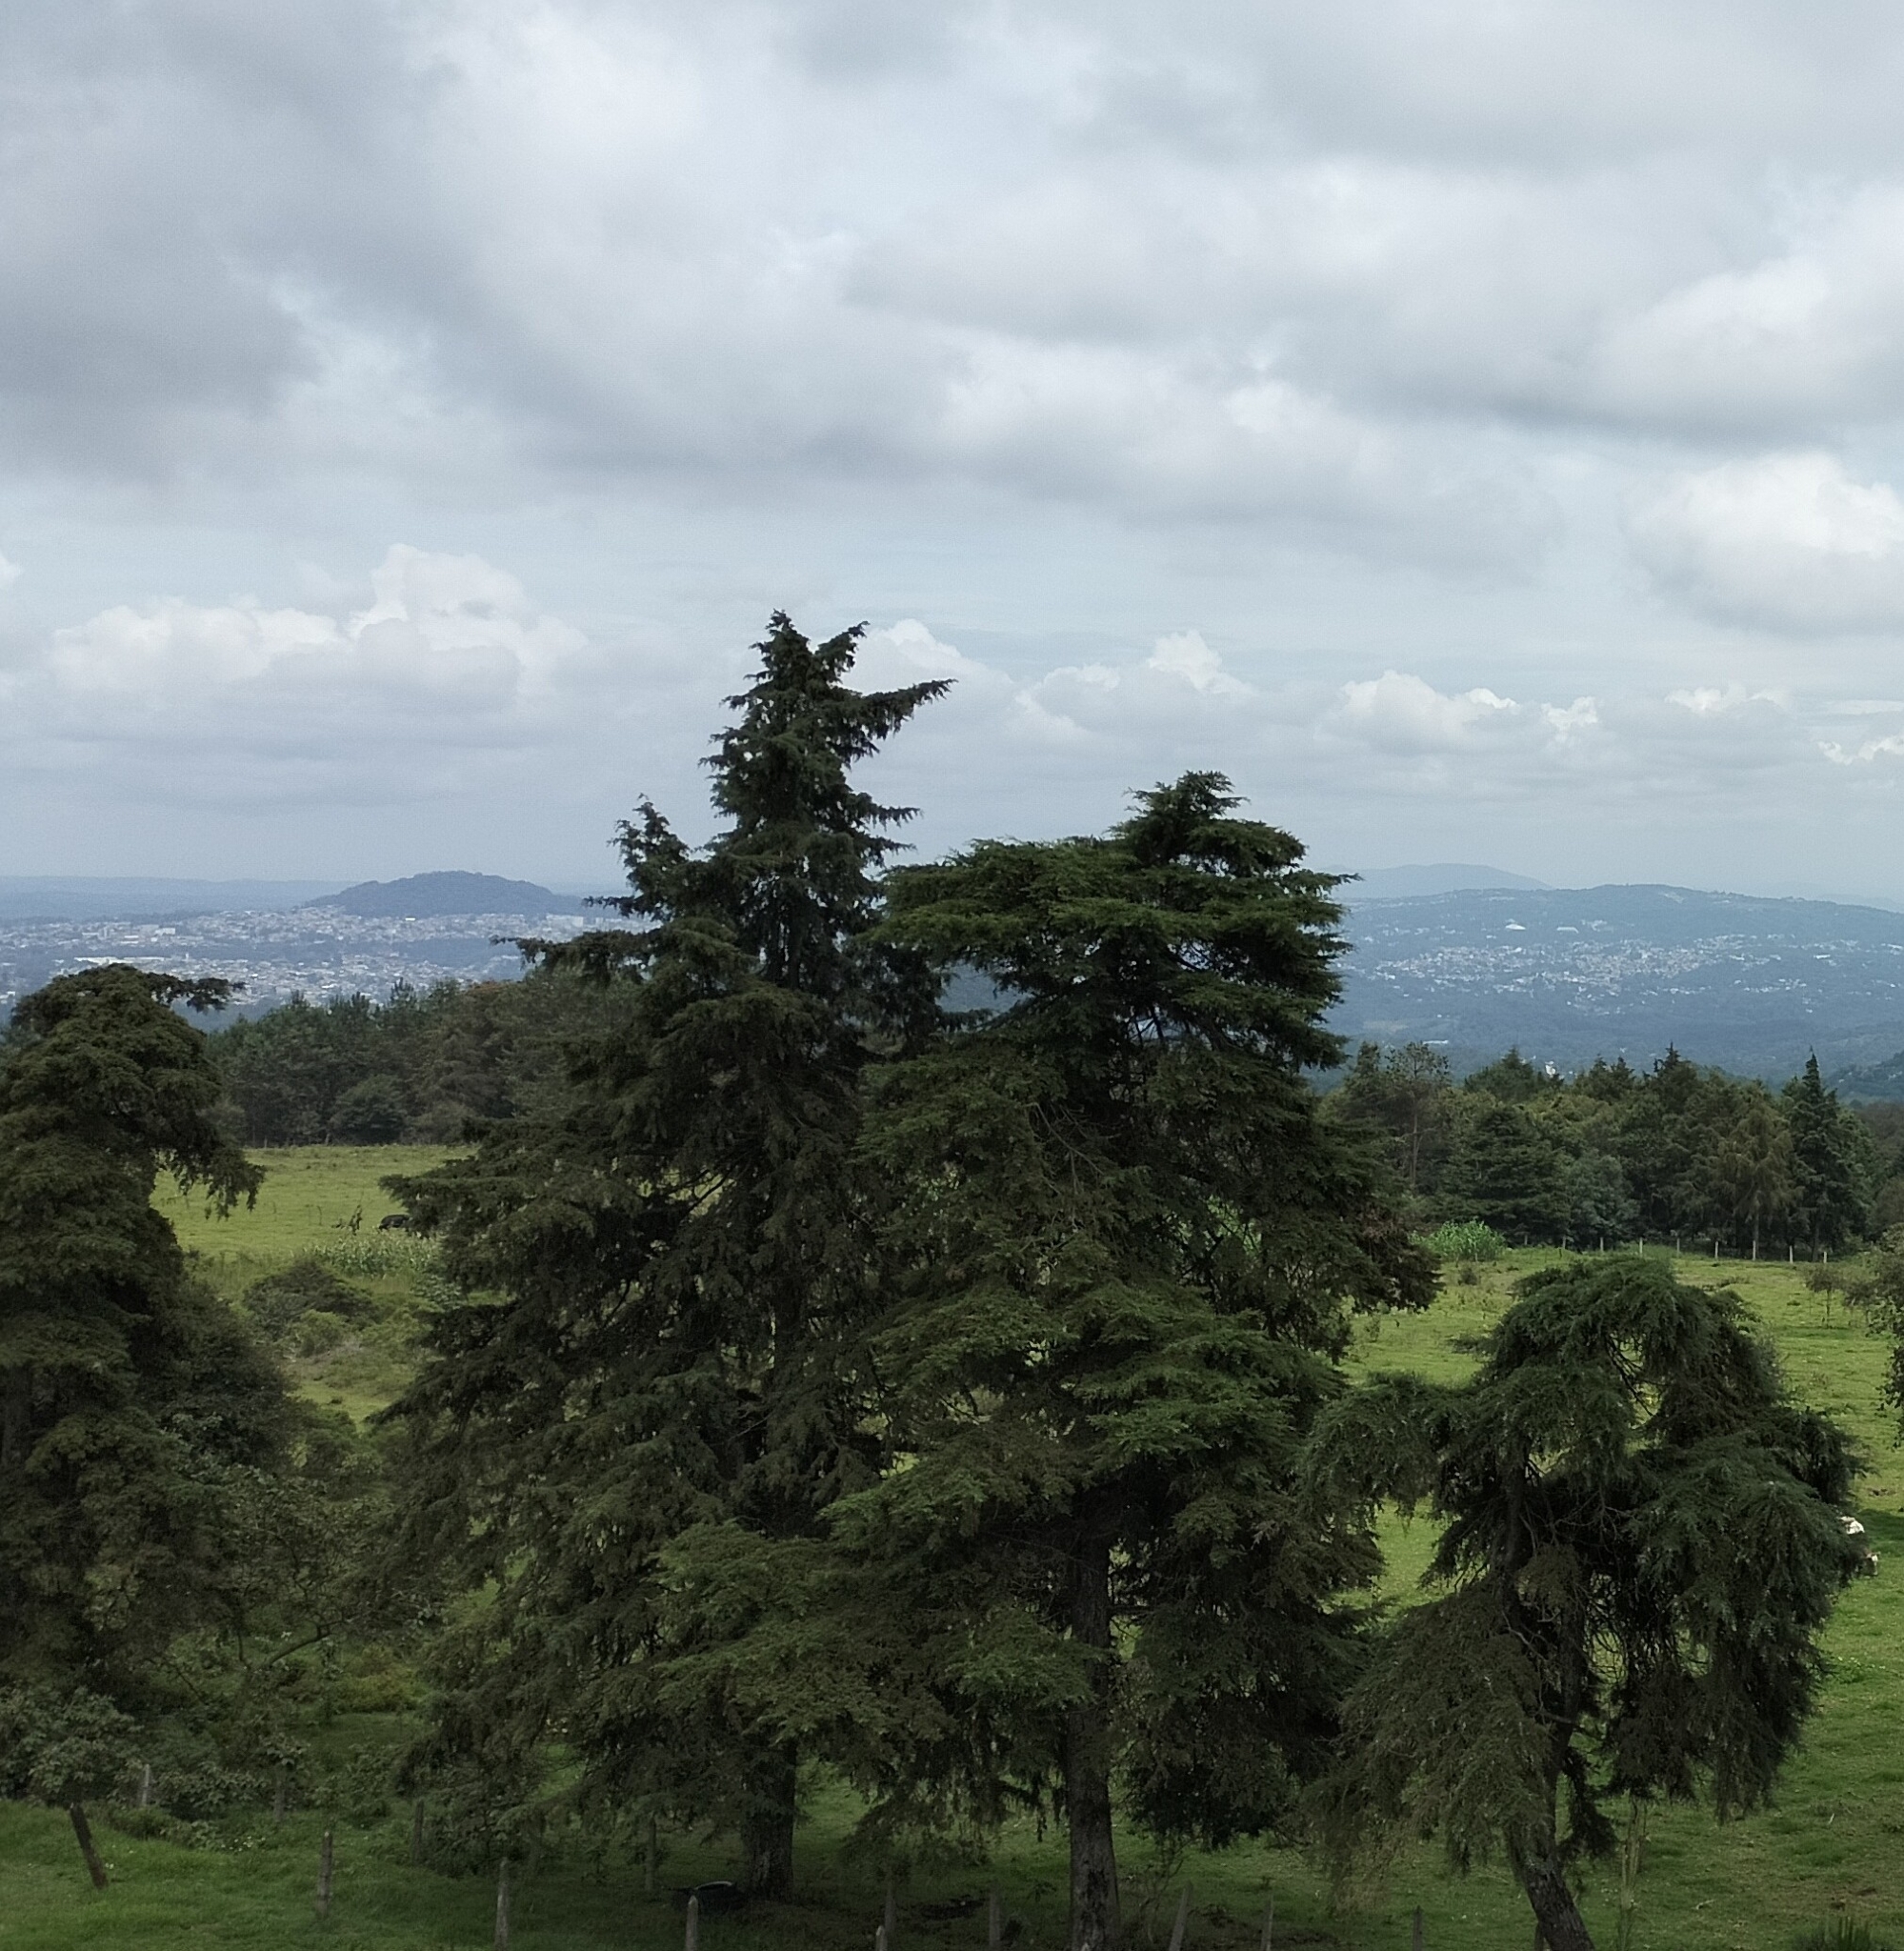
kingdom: Plantae
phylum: Tracheophyta
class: Pinopsida
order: Pinales
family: Cupressaceae
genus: Cupressus
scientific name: Cupressus lusitanica
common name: Mexican cypress
